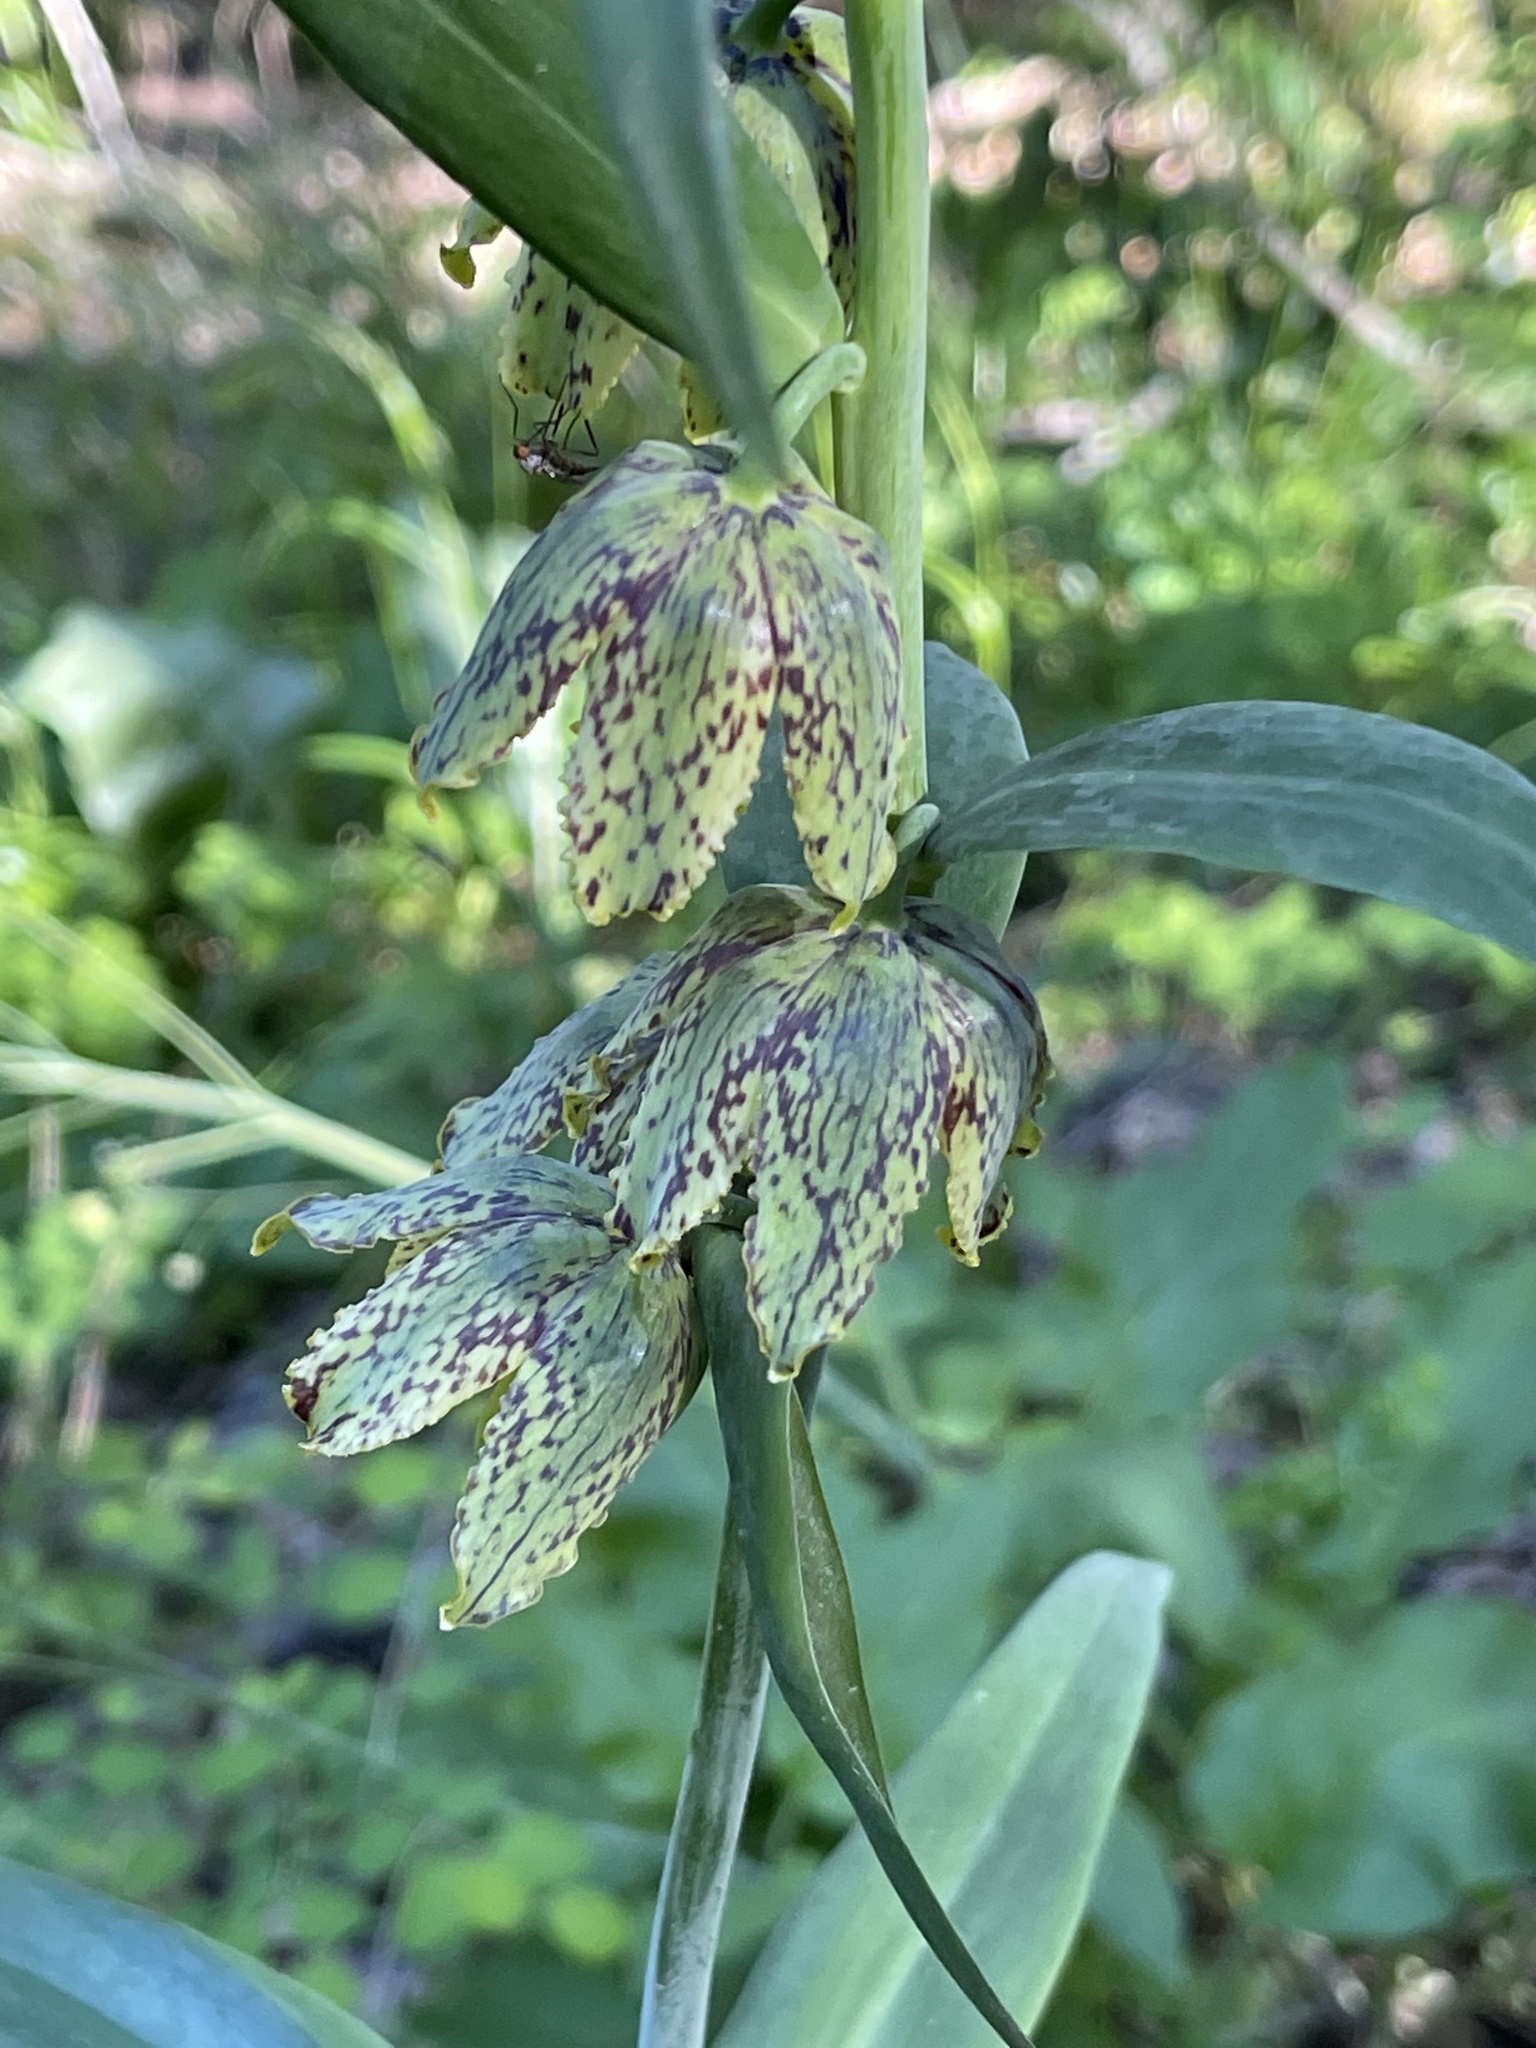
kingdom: Plantae
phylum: Tracheophyta
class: Liliopsida
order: Liliales
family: Liliaceae
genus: Fritillaria
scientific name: Fritillaria affinis
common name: Ojai fritillary
